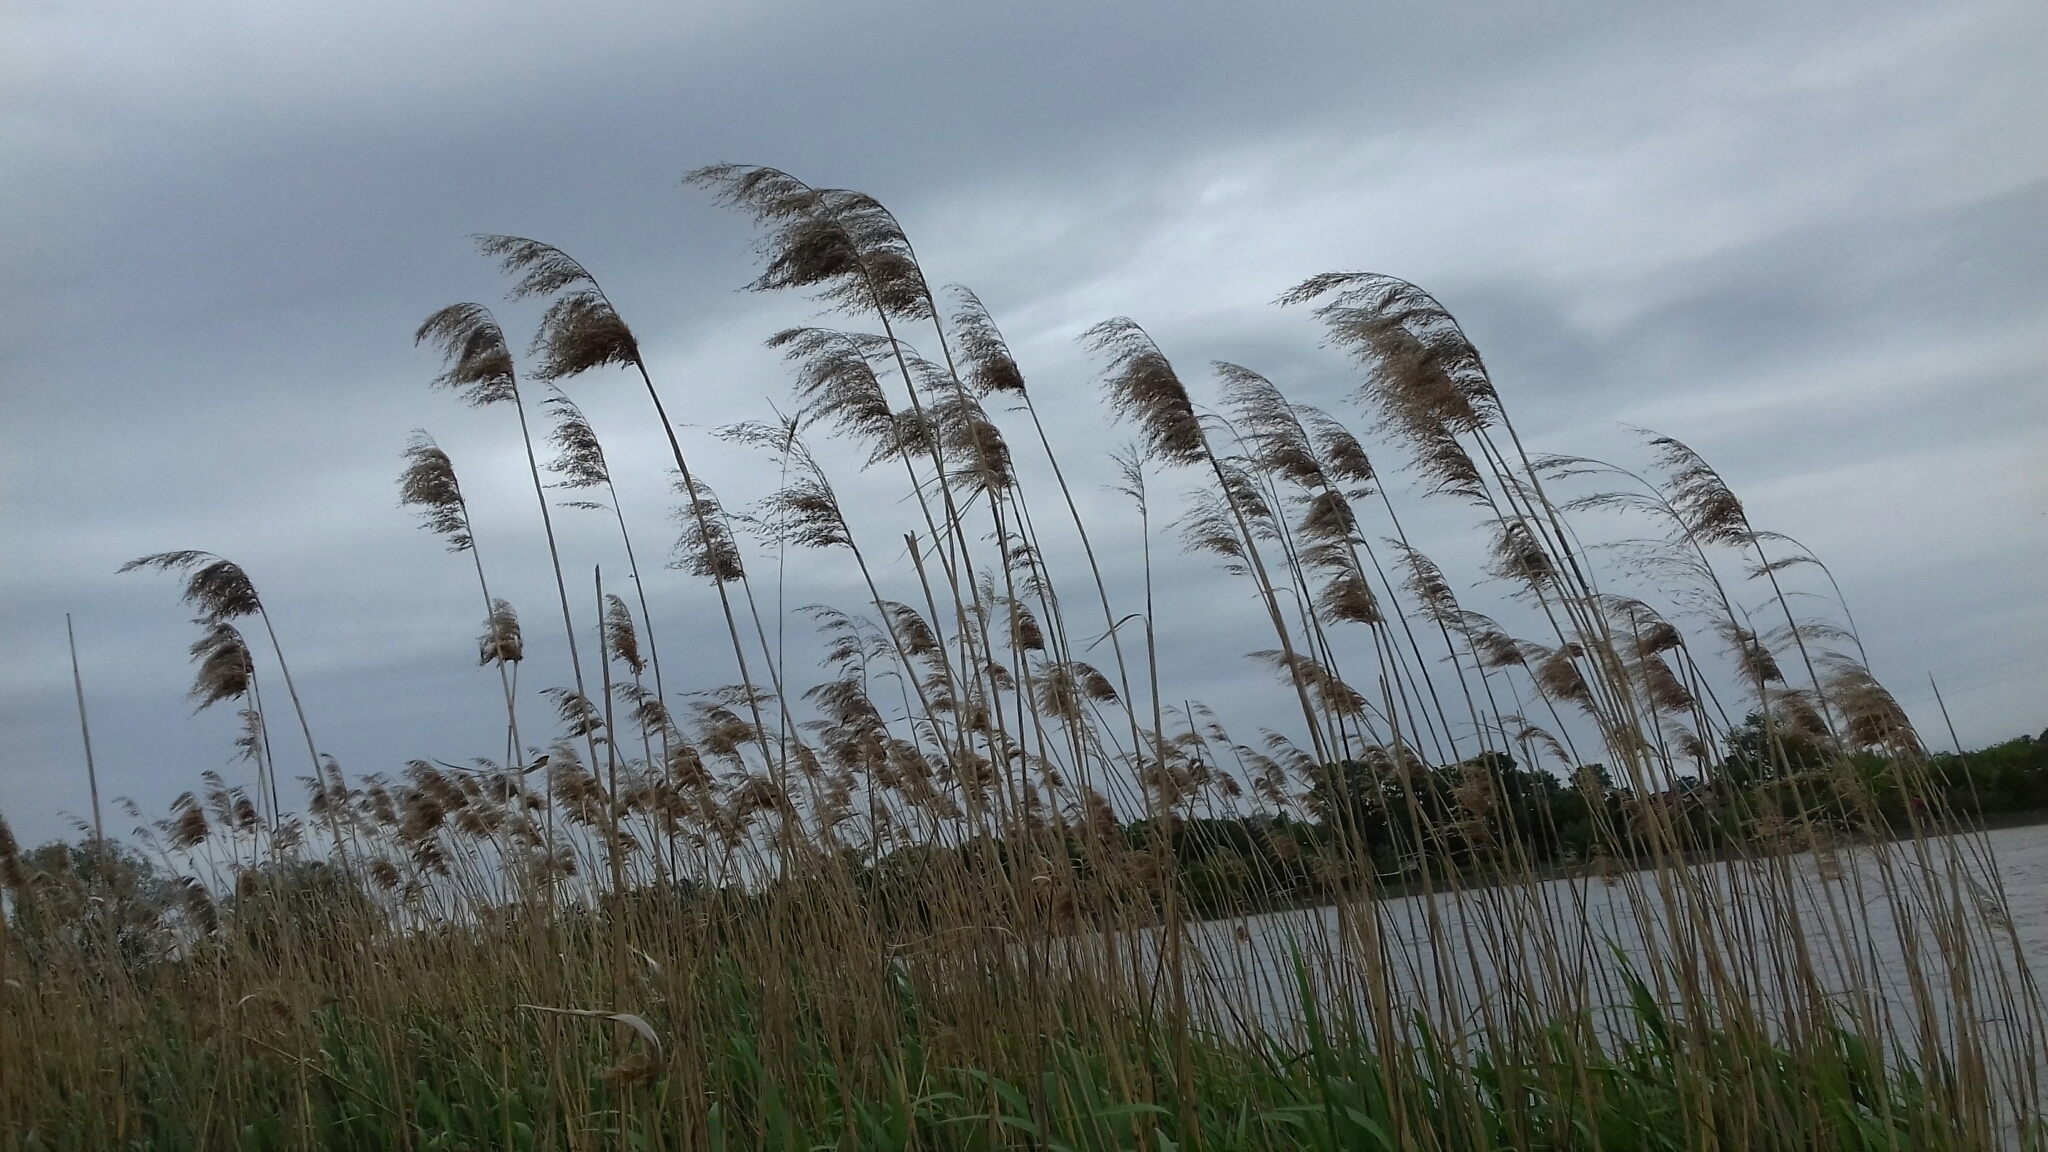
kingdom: Plantae
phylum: Tracheophyta
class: Liliopsida
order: Poales
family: Poaceae
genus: Phragmites
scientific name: Phragmites australis
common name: Common reed
